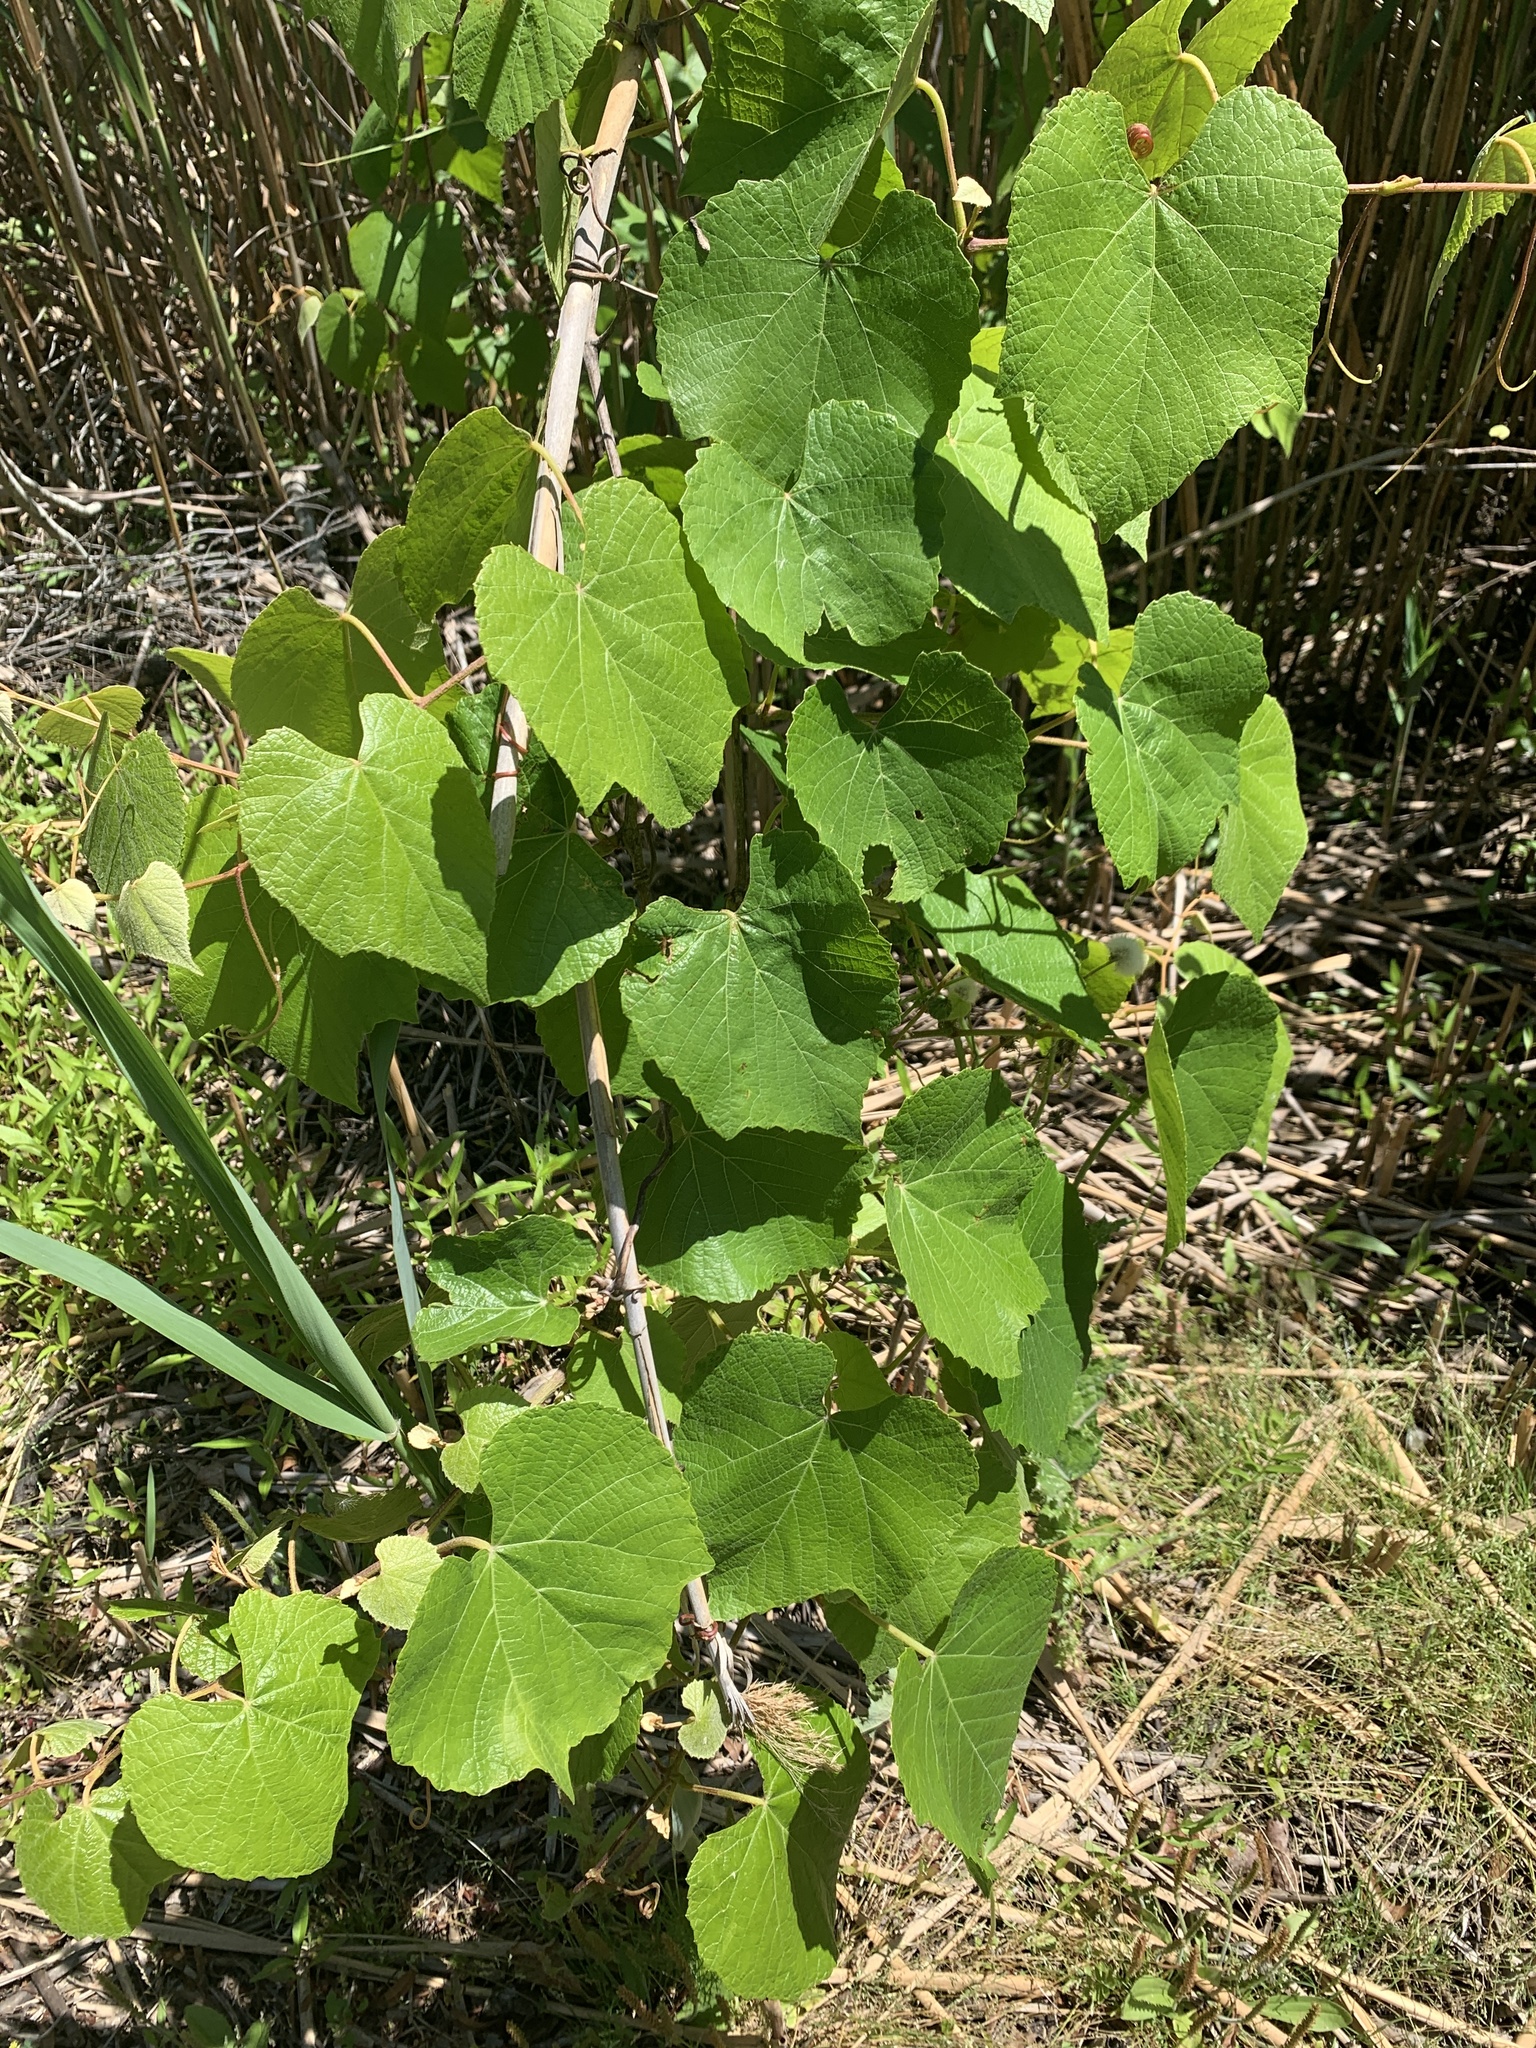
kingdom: Plantae
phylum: Tracheophyta
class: Magnoliopsida
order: Vitales
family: Vitaceae
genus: Vitis
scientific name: Vitis labrusca
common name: Concord grape
